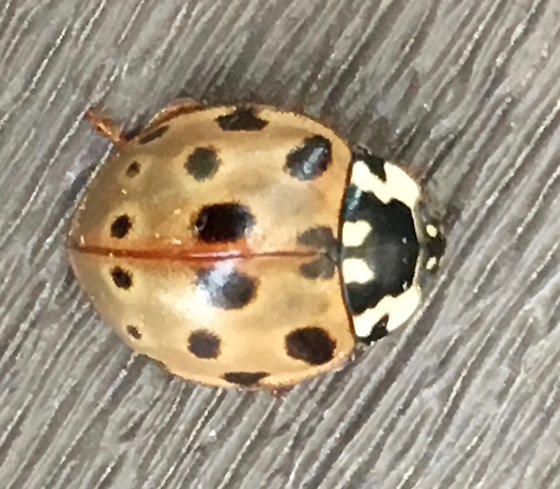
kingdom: Animalia
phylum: Arthropoda
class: Insecta
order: Coleoptera
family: Coccinellidae
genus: Anatis
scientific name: Anatis labiculata
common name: Fifteen-spotted lady beetle
